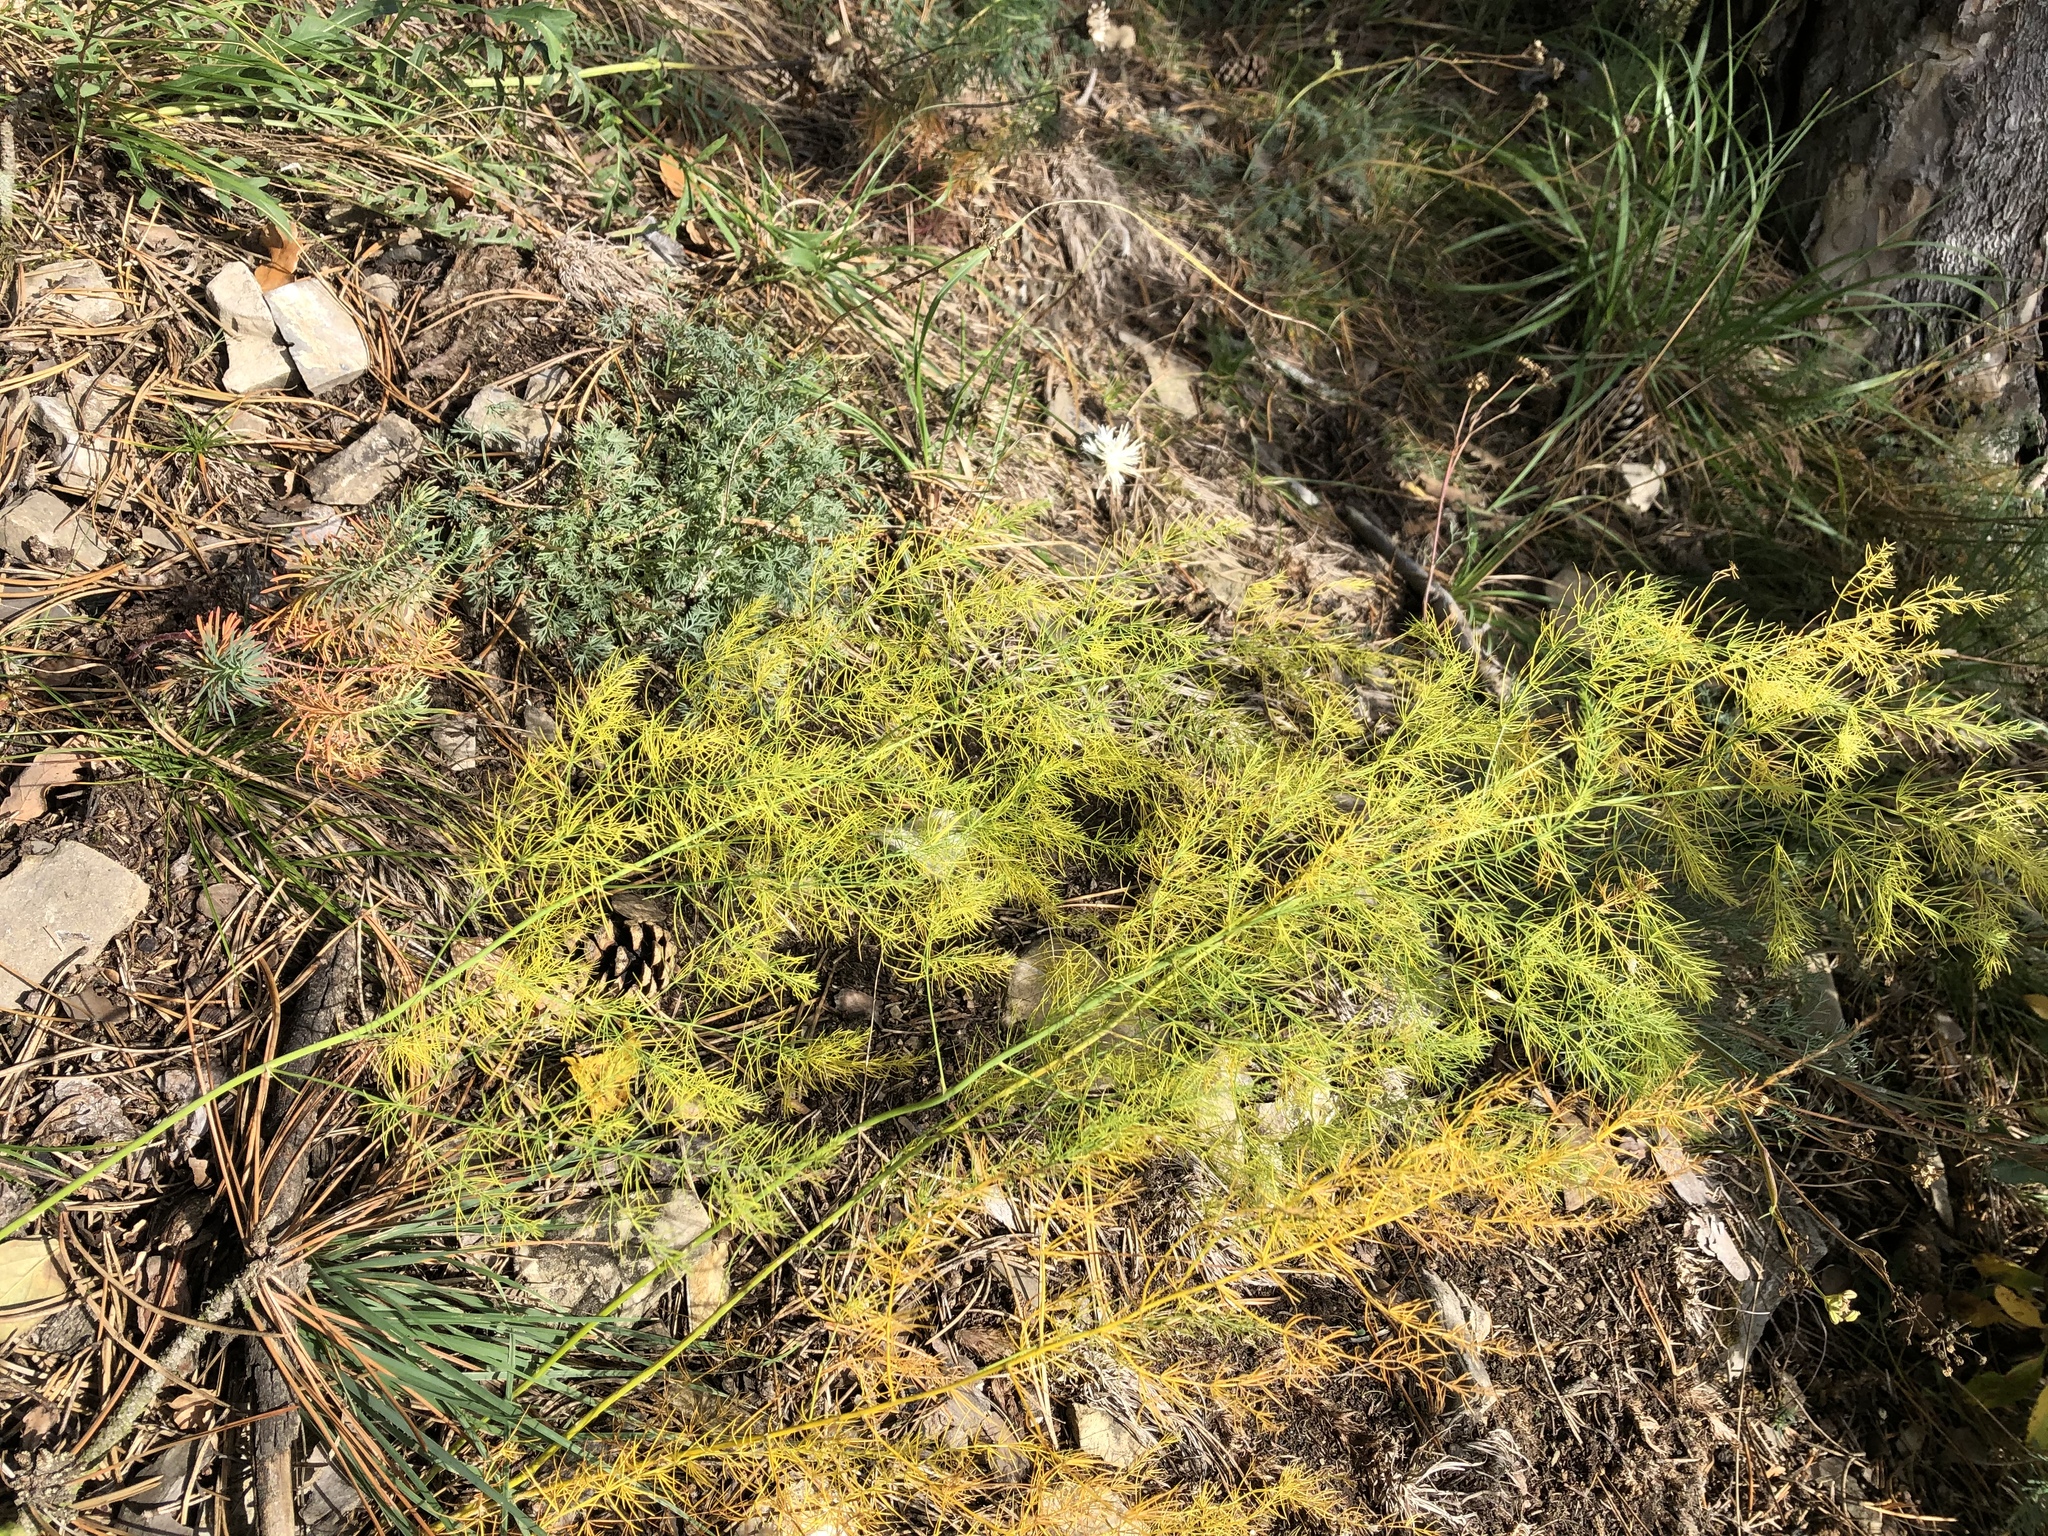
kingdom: Plantae
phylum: Tracheophyta
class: Liliopsida
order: Asparagales
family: Asparagaceae
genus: Asparagus
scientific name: Asparagus officinalis
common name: Garden asparagus
